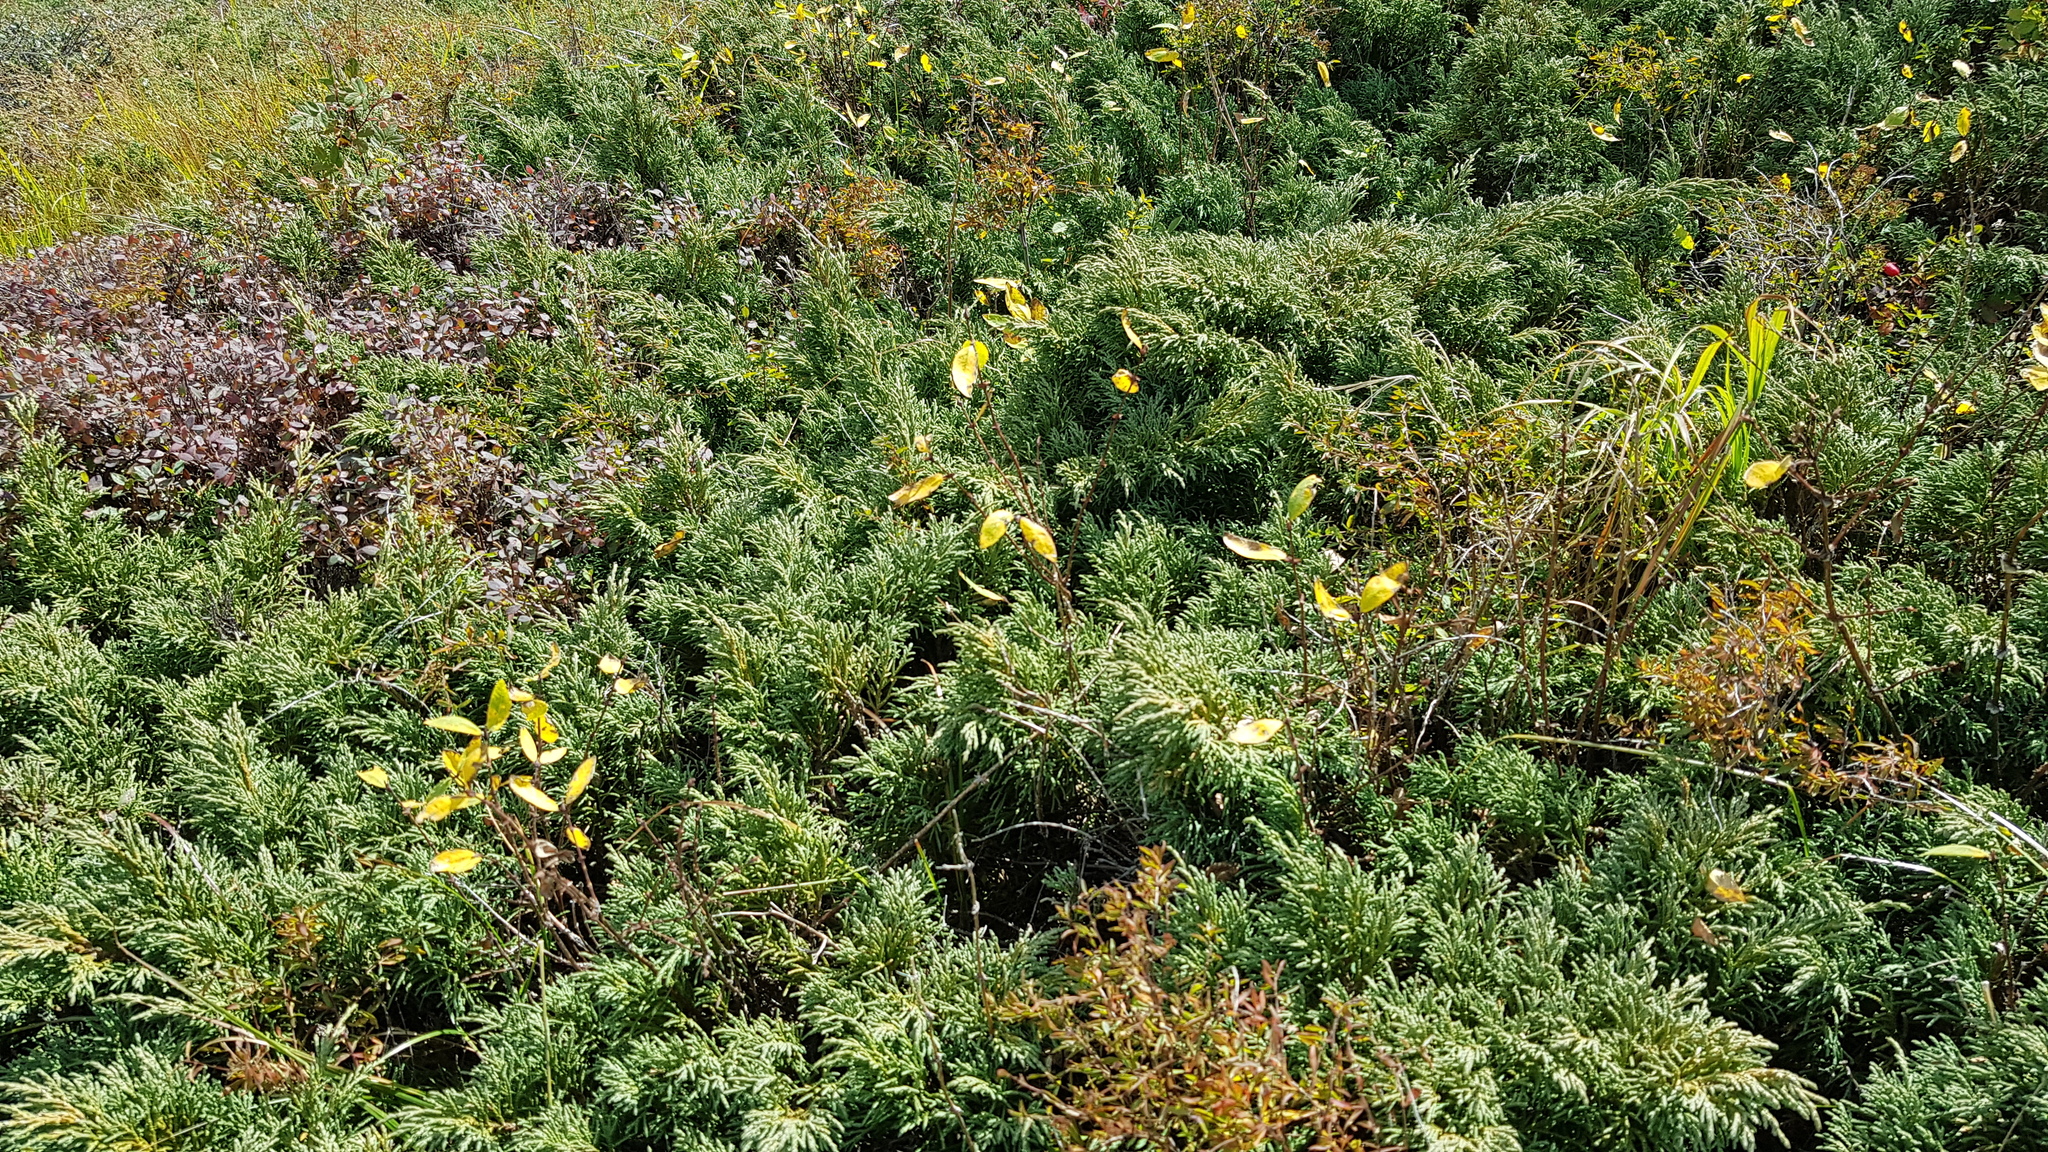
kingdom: Plantae
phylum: Tracheophyta
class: Pinopsida
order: Pinales
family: Cupressaceae
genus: Juniperus
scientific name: Juniperus pseudosabina
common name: Turkestan juniper
